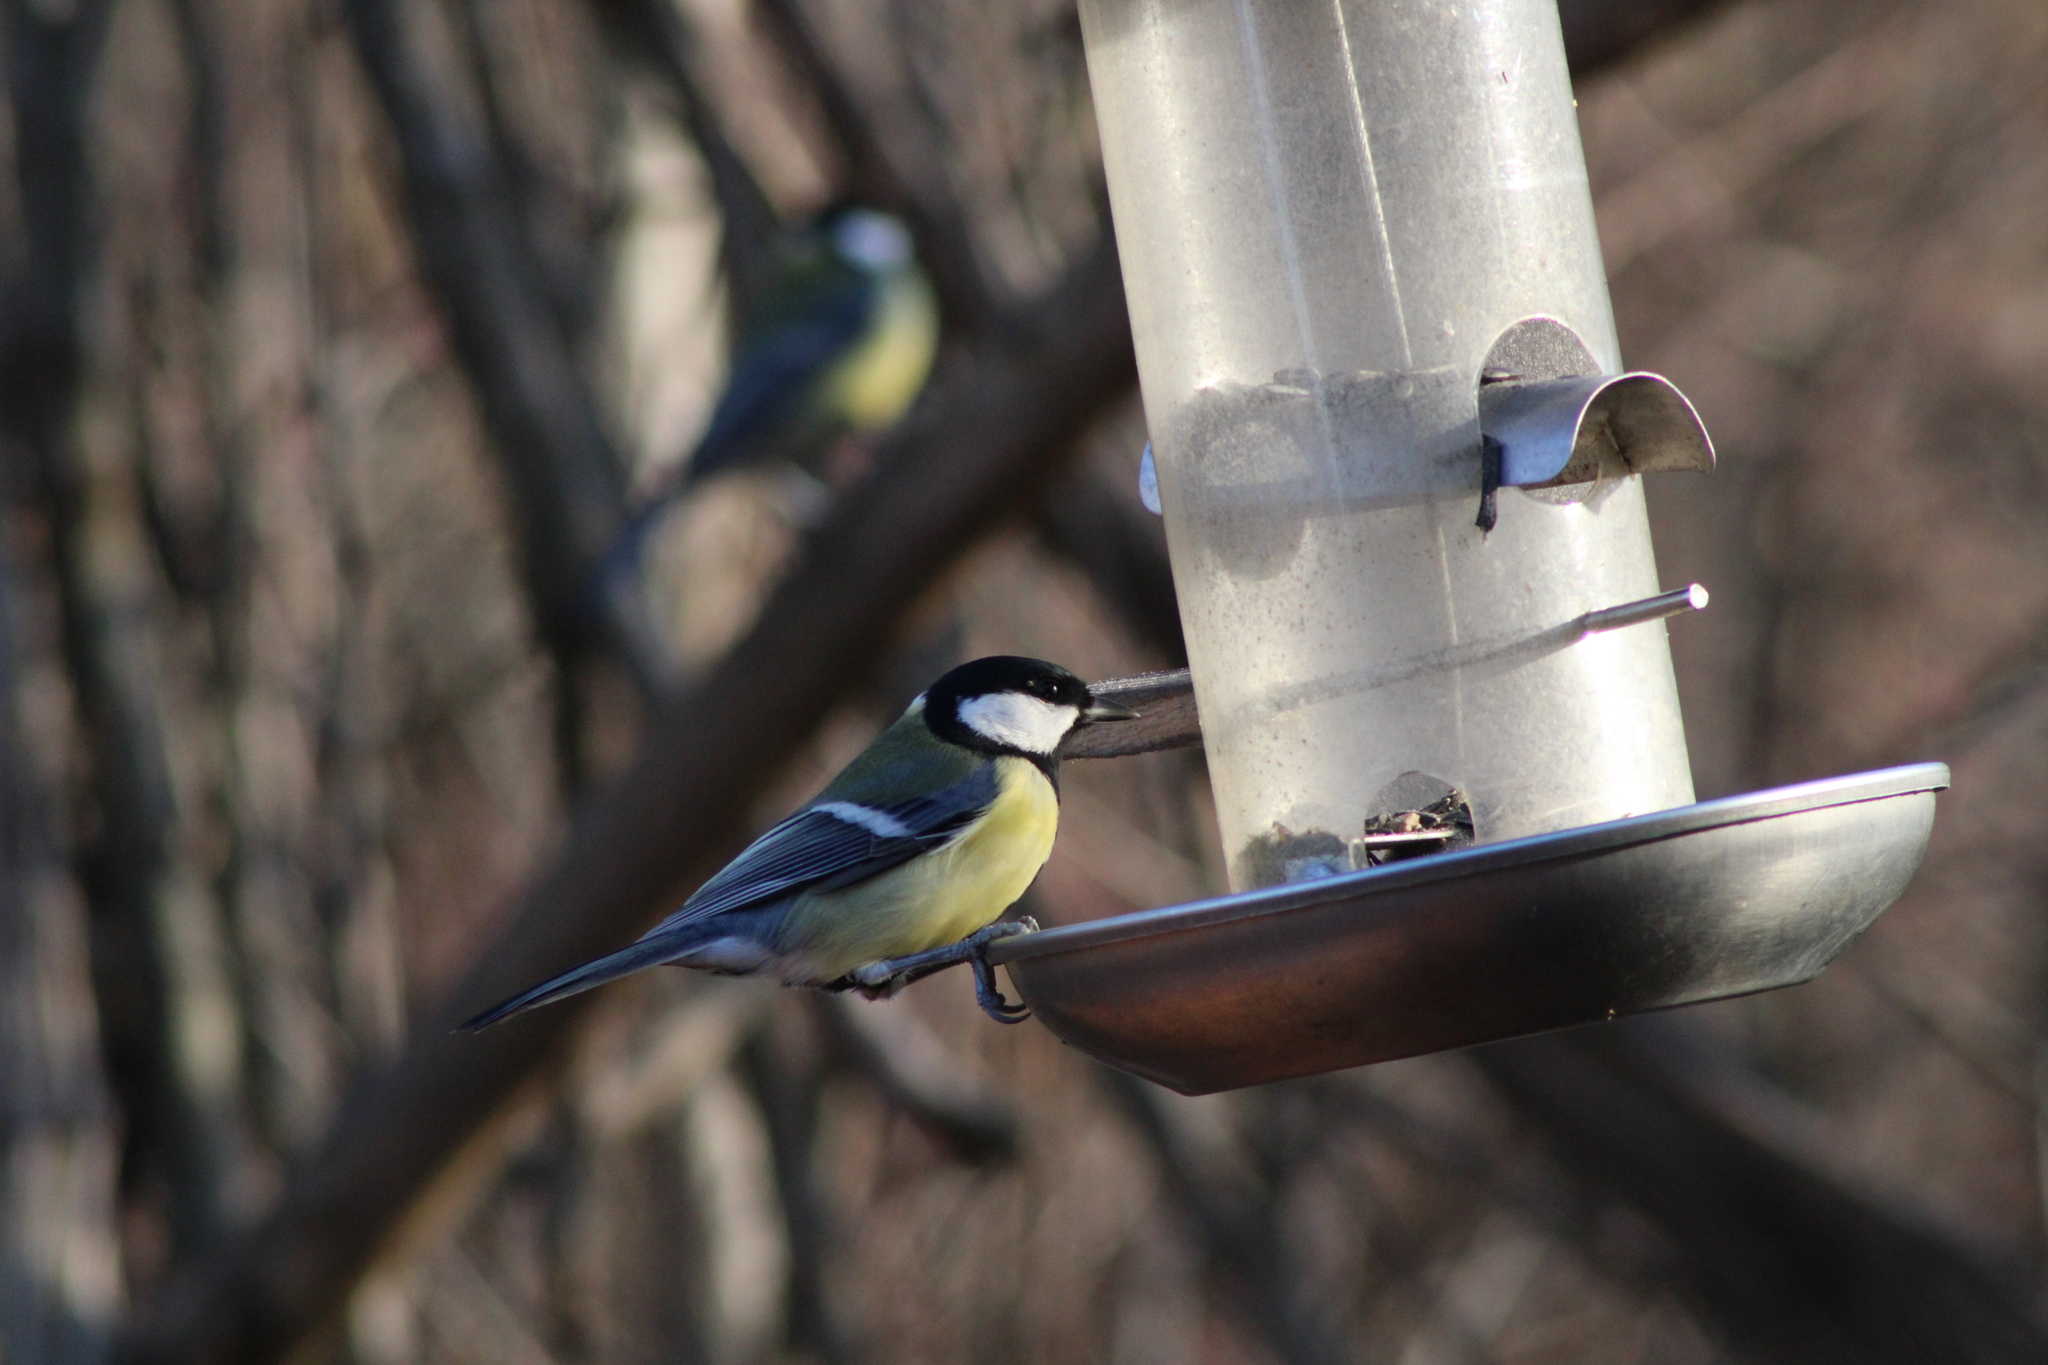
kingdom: Animalia
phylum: Chordata
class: Aves
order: Passeriformes
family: Paridae
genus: Parus
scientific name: Parus major
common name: Great tit
